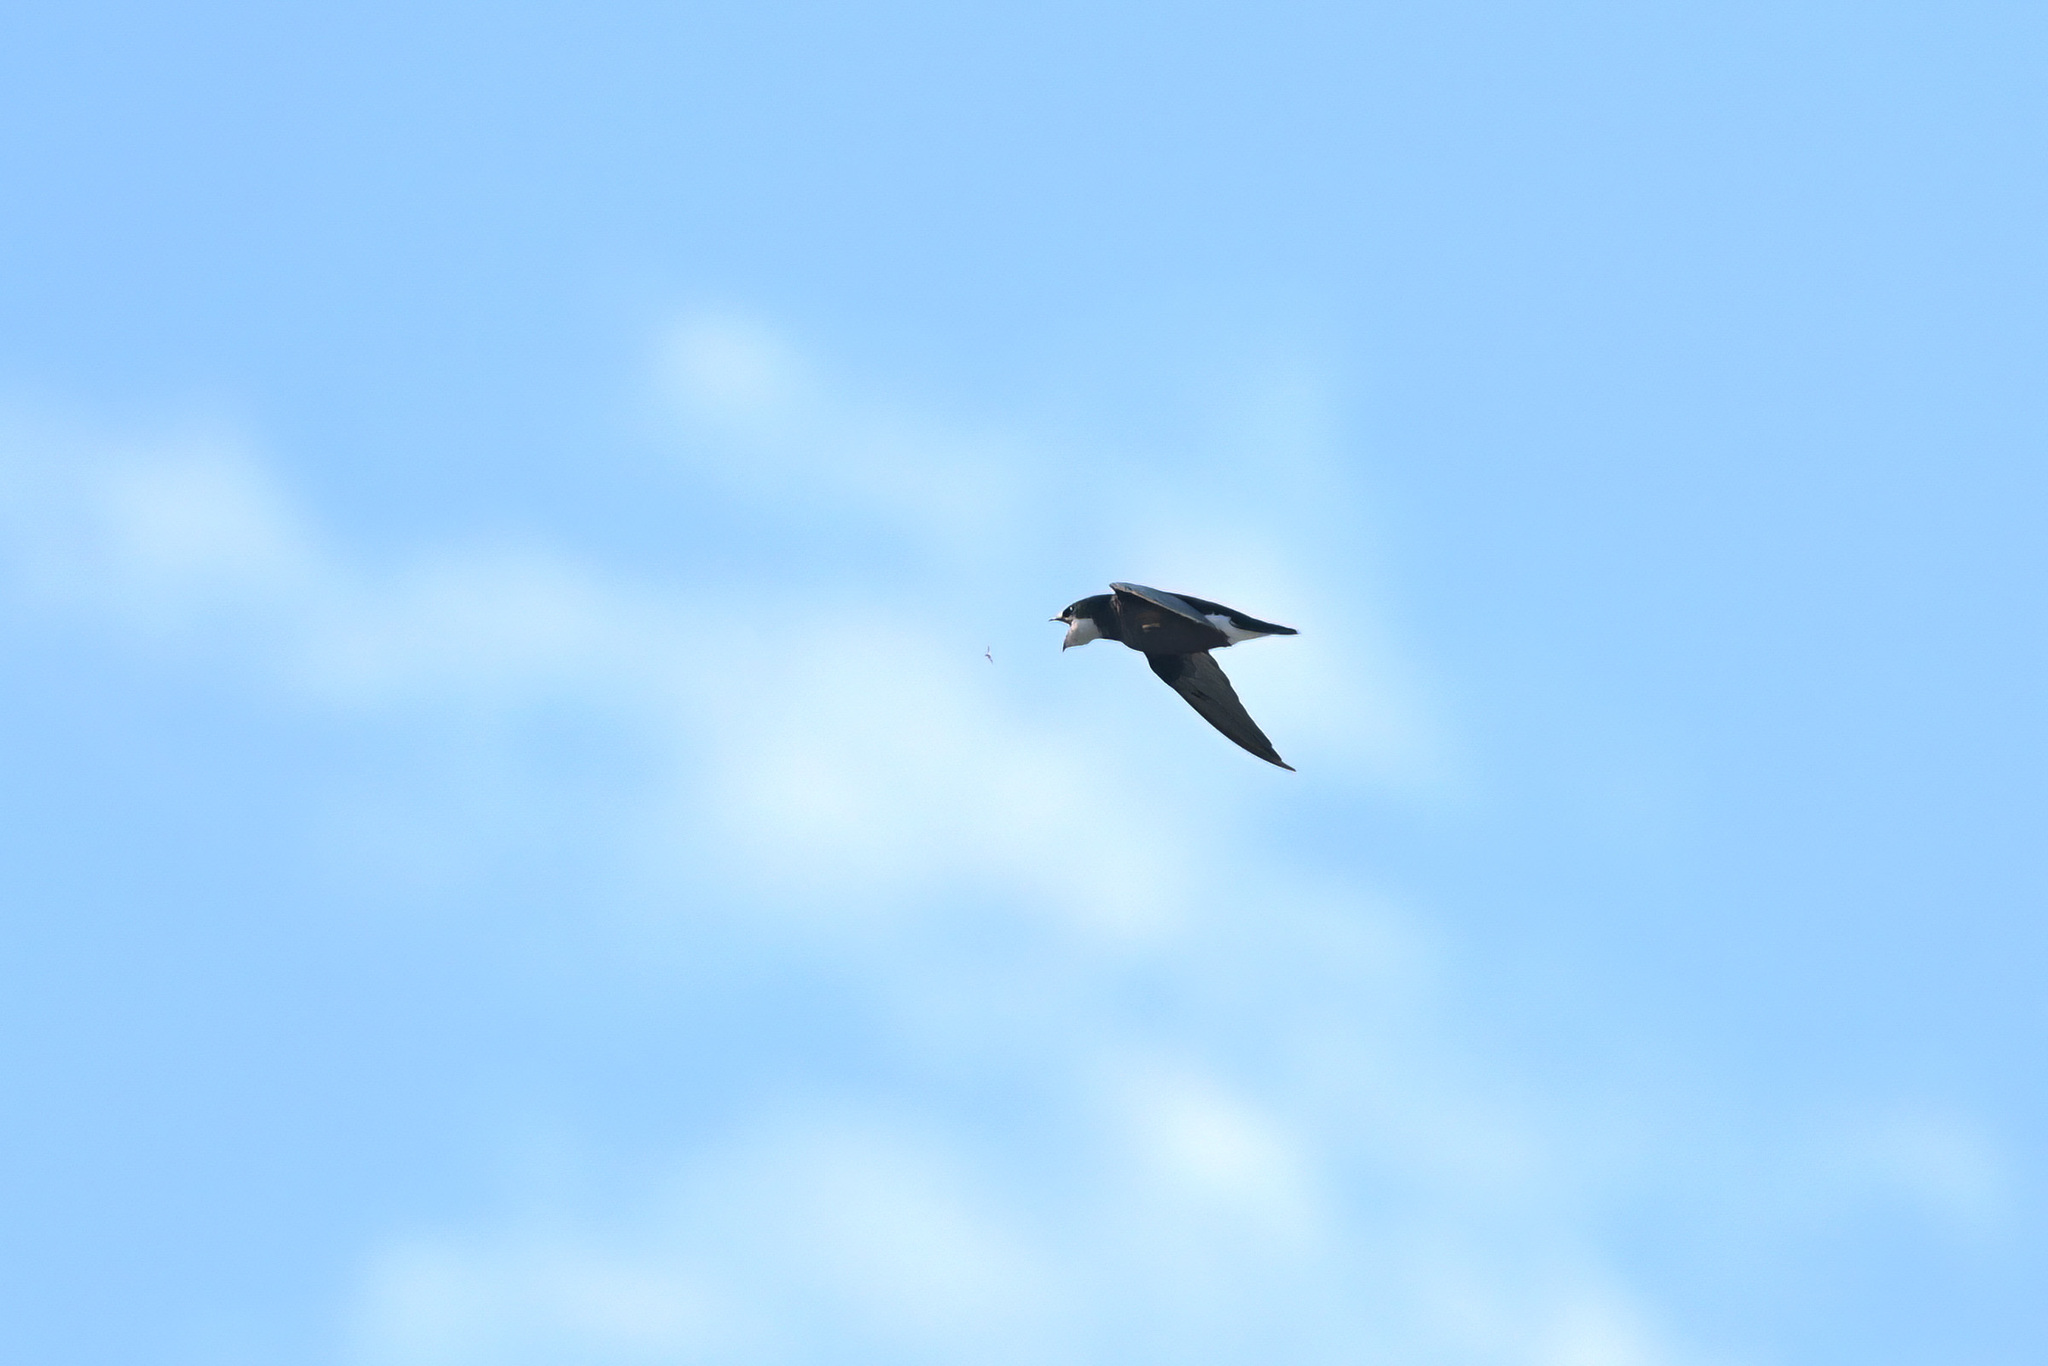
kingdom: Animalia
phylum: Chordata
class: Aves
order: Apodiformes
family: Apodidae
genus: Hirundapus
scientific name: Hirundapus caudacutus
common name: White-throated needletail
